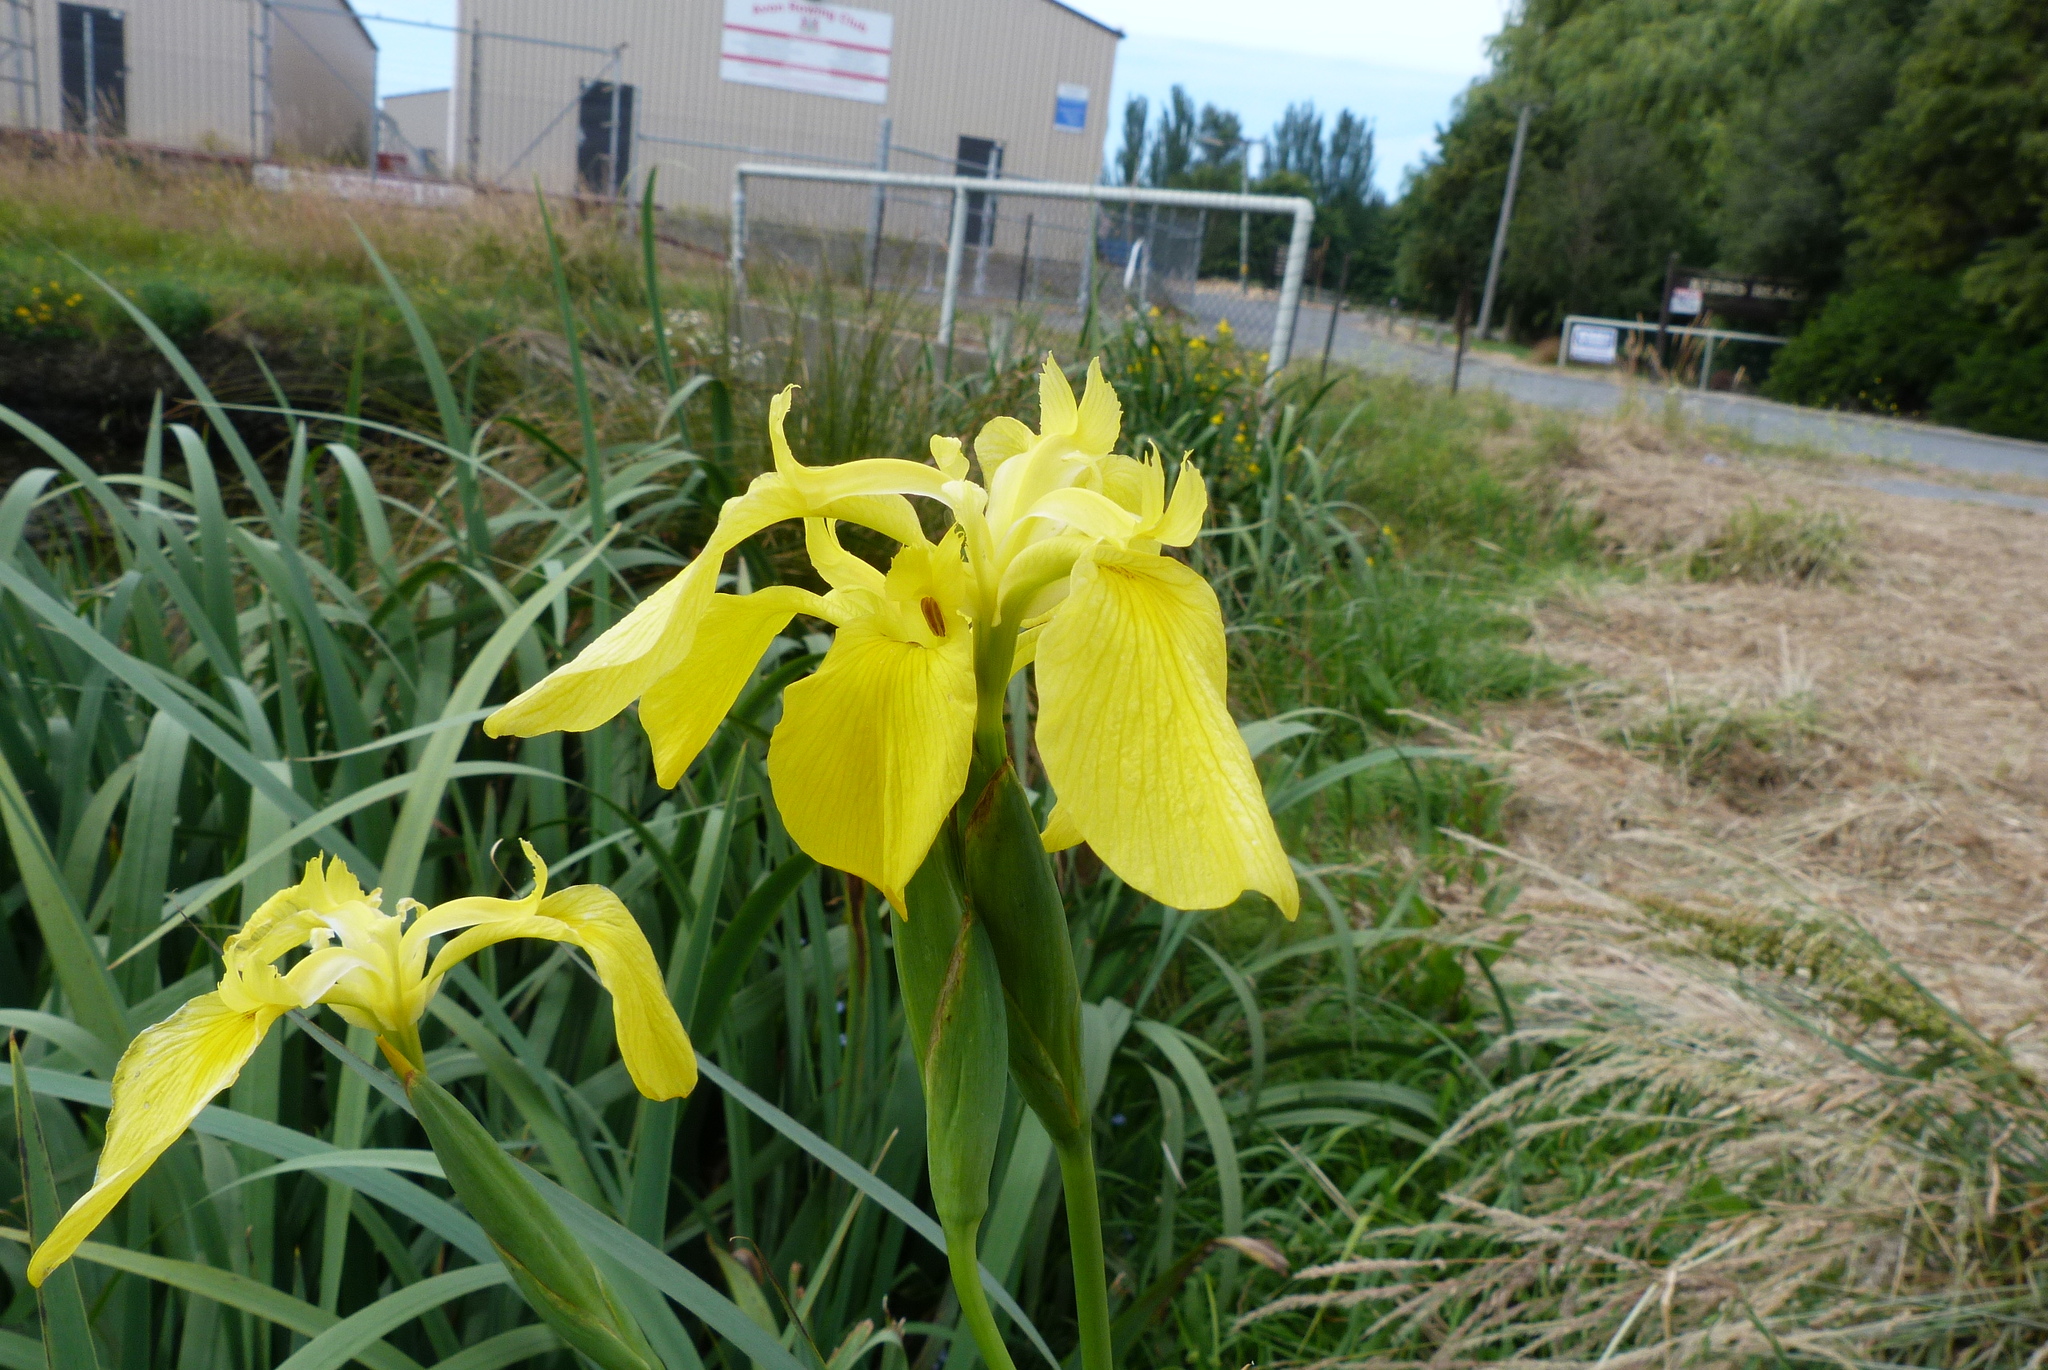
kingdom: Plantae
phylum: Tracheophyta
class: Liliopsida
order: Asparagales
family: Iridaceae
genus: Iris
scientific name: Iris pseudacorus
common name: Yellow flag
